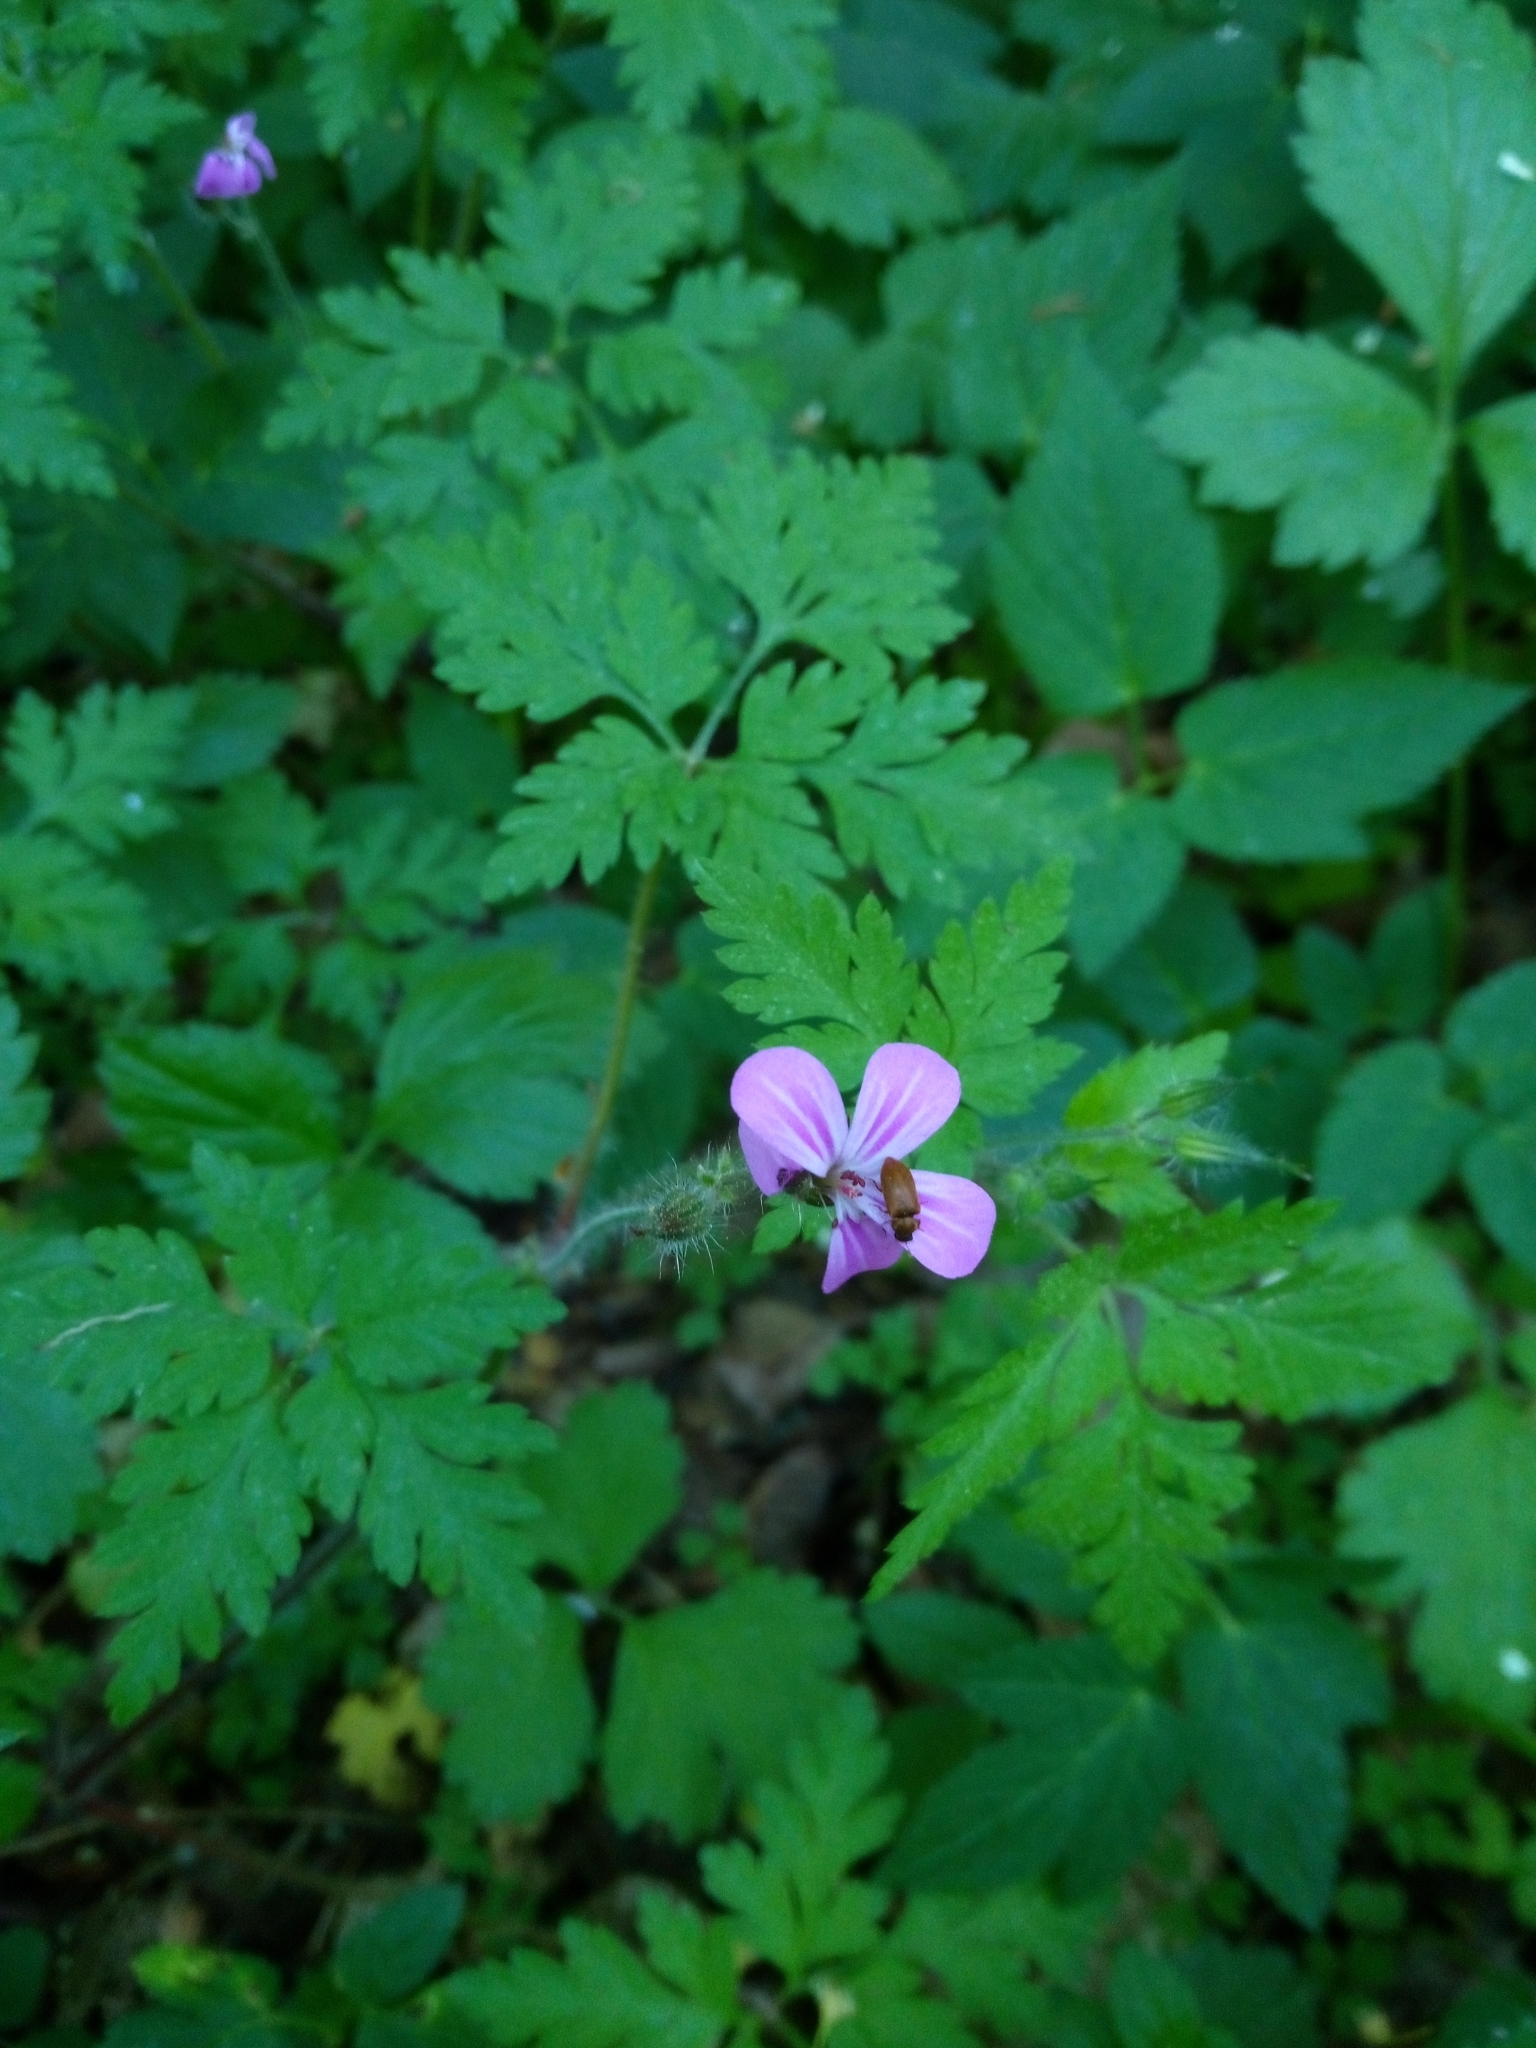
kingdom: Plantae
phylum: Tracheophyta
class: Magnoliopsida
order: Geraniales
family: Geraniaceae
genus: Geranium
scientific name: Geranium robertianum
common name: Herb-robert
